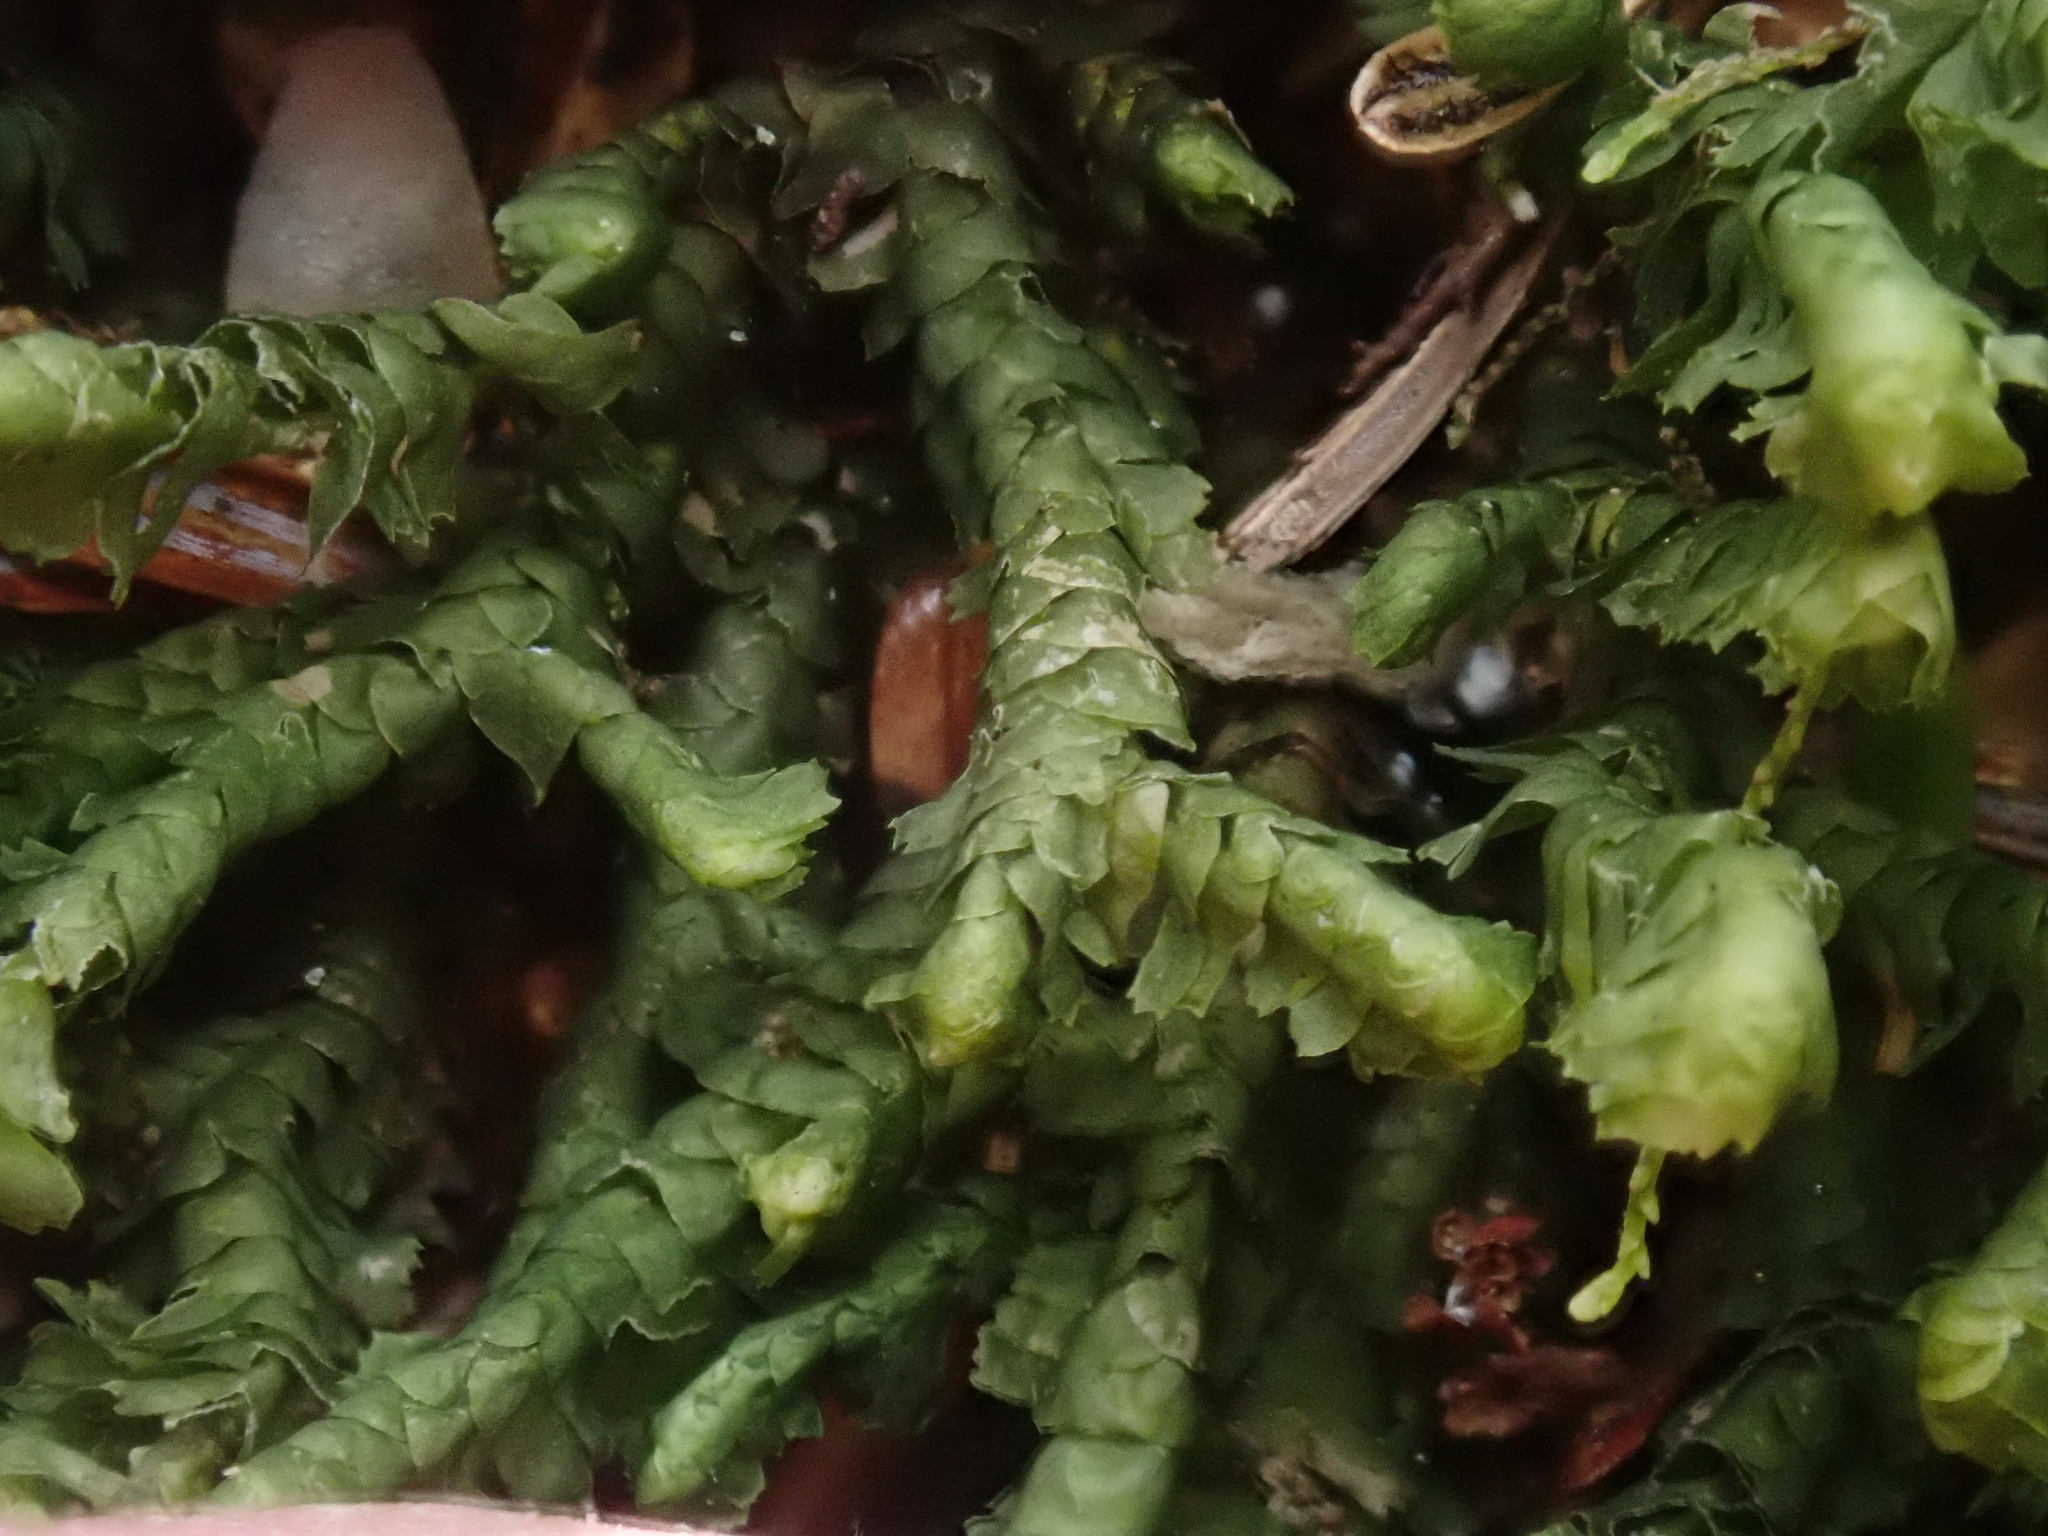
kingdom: Plantae
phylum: Marchantiophyta
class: Jungermanniopsida
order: Jungermanniales
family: Lepidoziaceae
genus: Bazzania
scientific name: Bazzania trilobata
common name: Three-lobed whipwort
